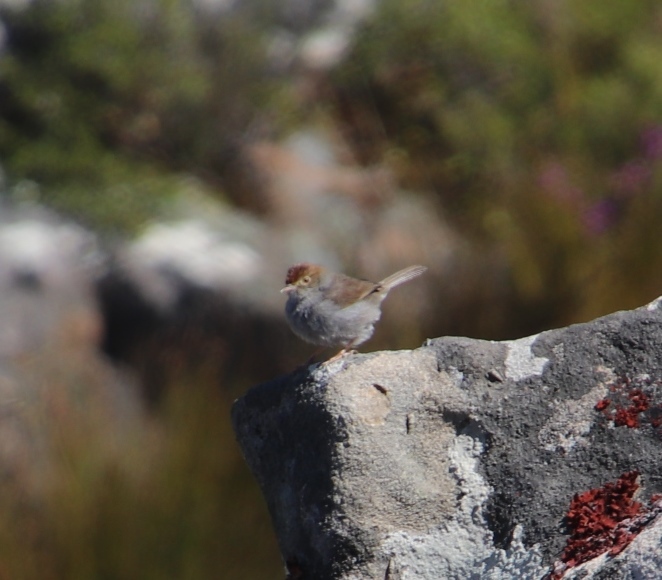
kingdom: Animalia
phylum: Chordata
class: Aves
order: Passeriformes
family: Cisticolidae
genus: Cisticola
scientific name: Cisticola fulvicapilla
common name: Neddicky
